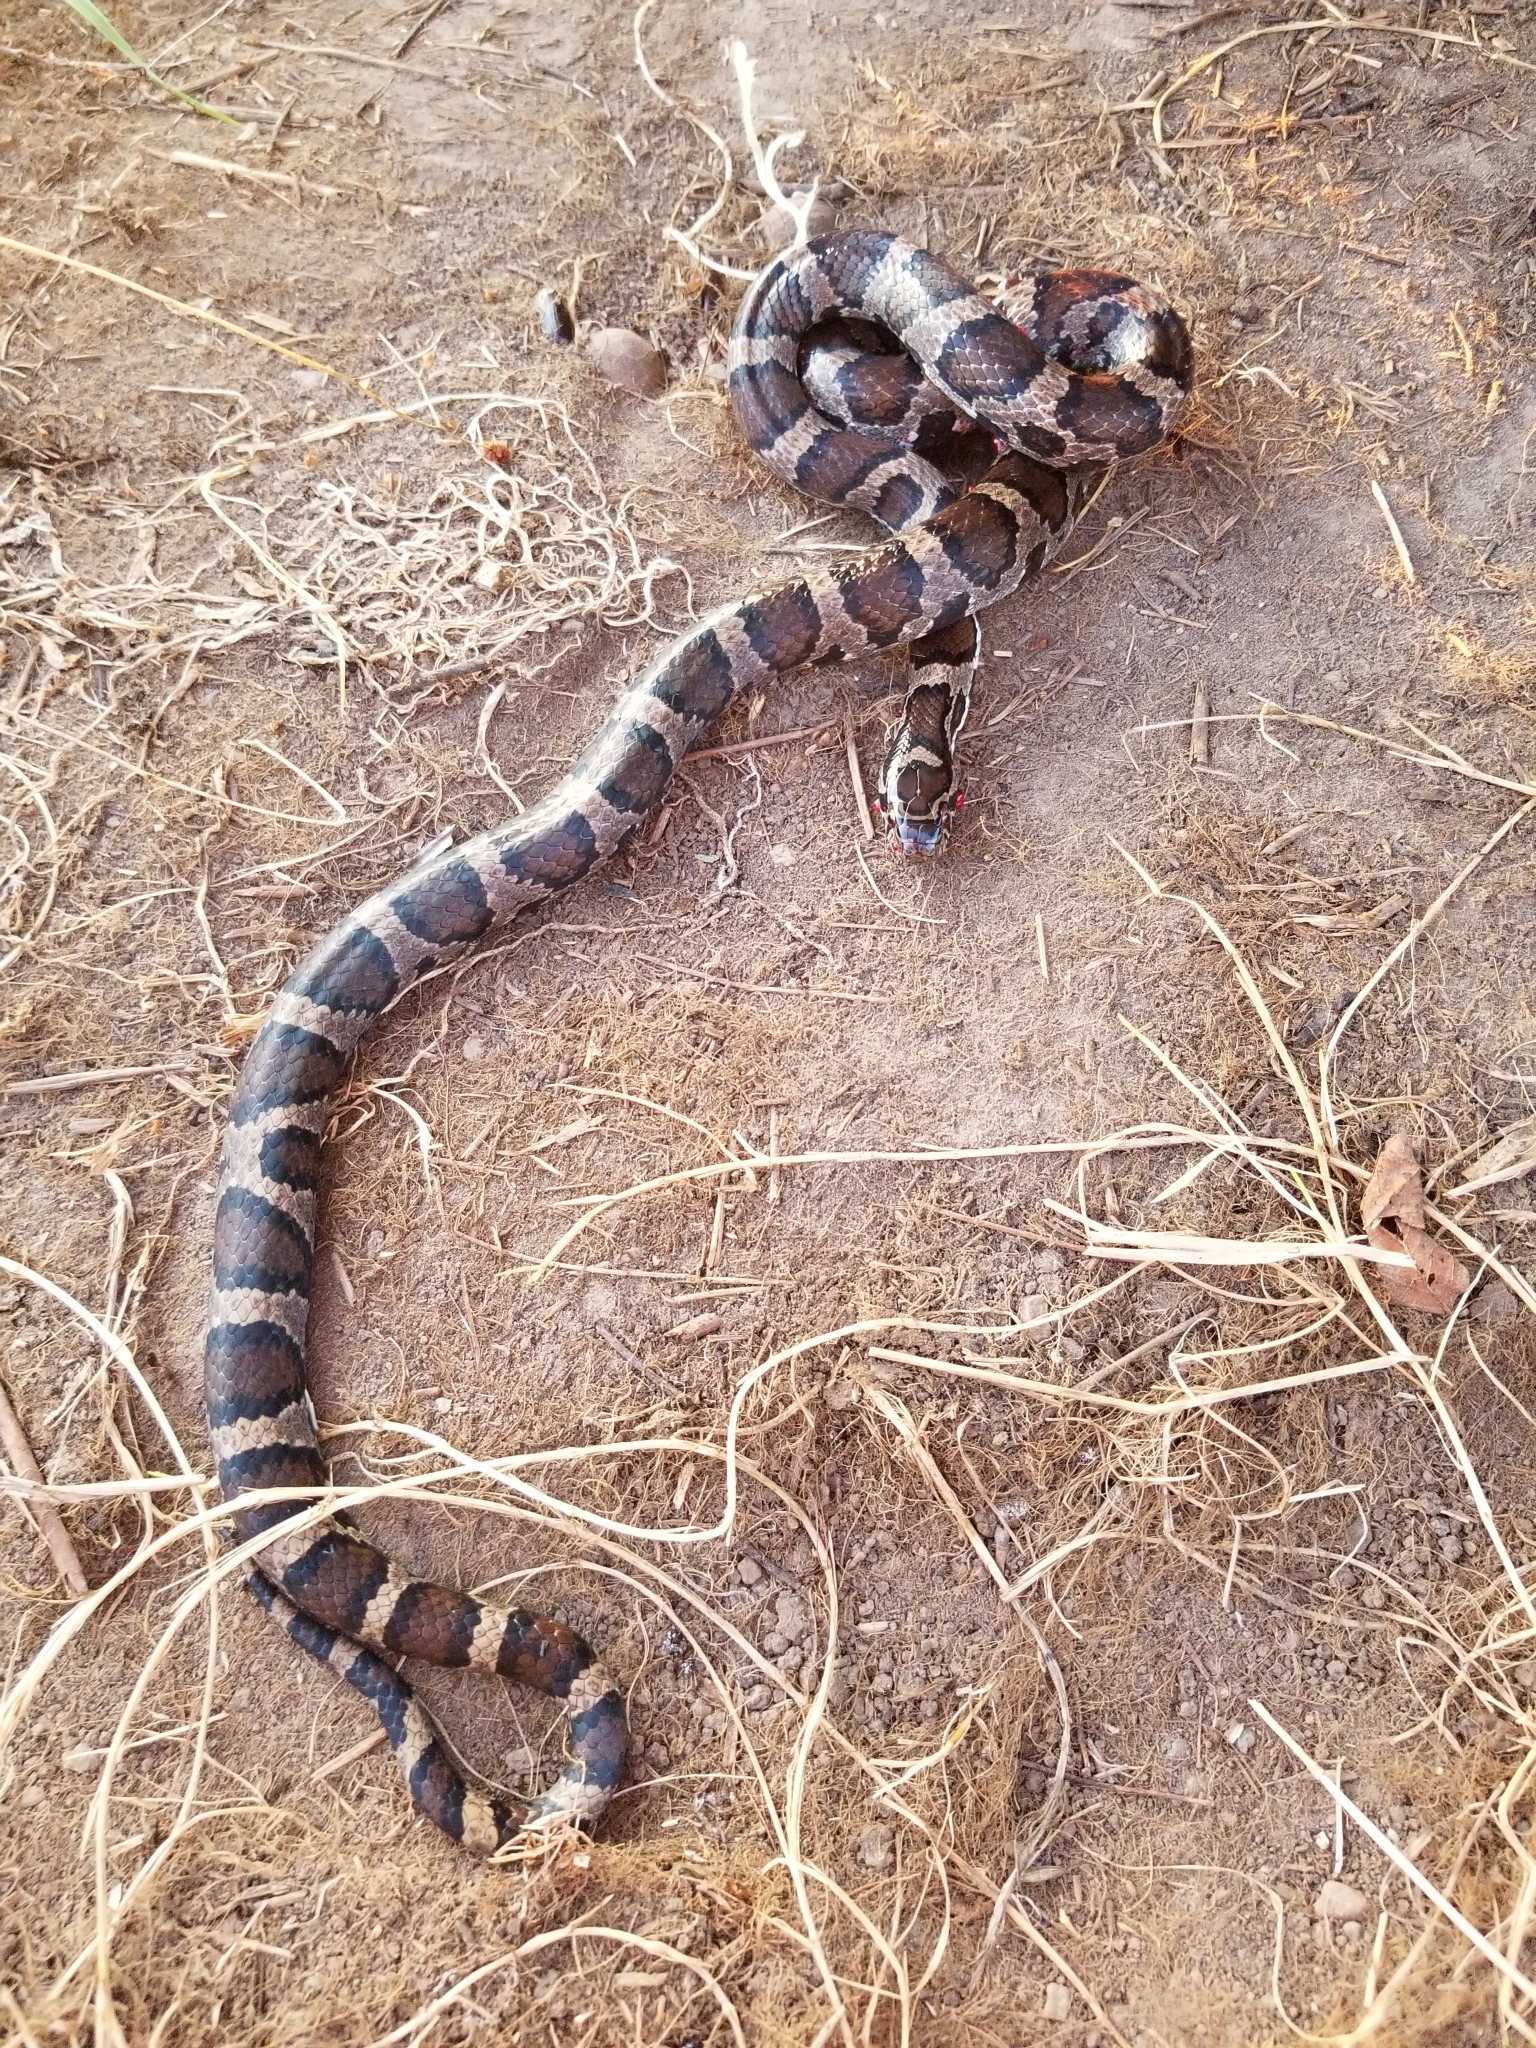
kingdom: Animalia
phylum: Chordata
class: Squamata
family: Colubridae
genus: Lampropeltis
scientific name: Lampropeltis triangulum
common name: Eastern milksnake
